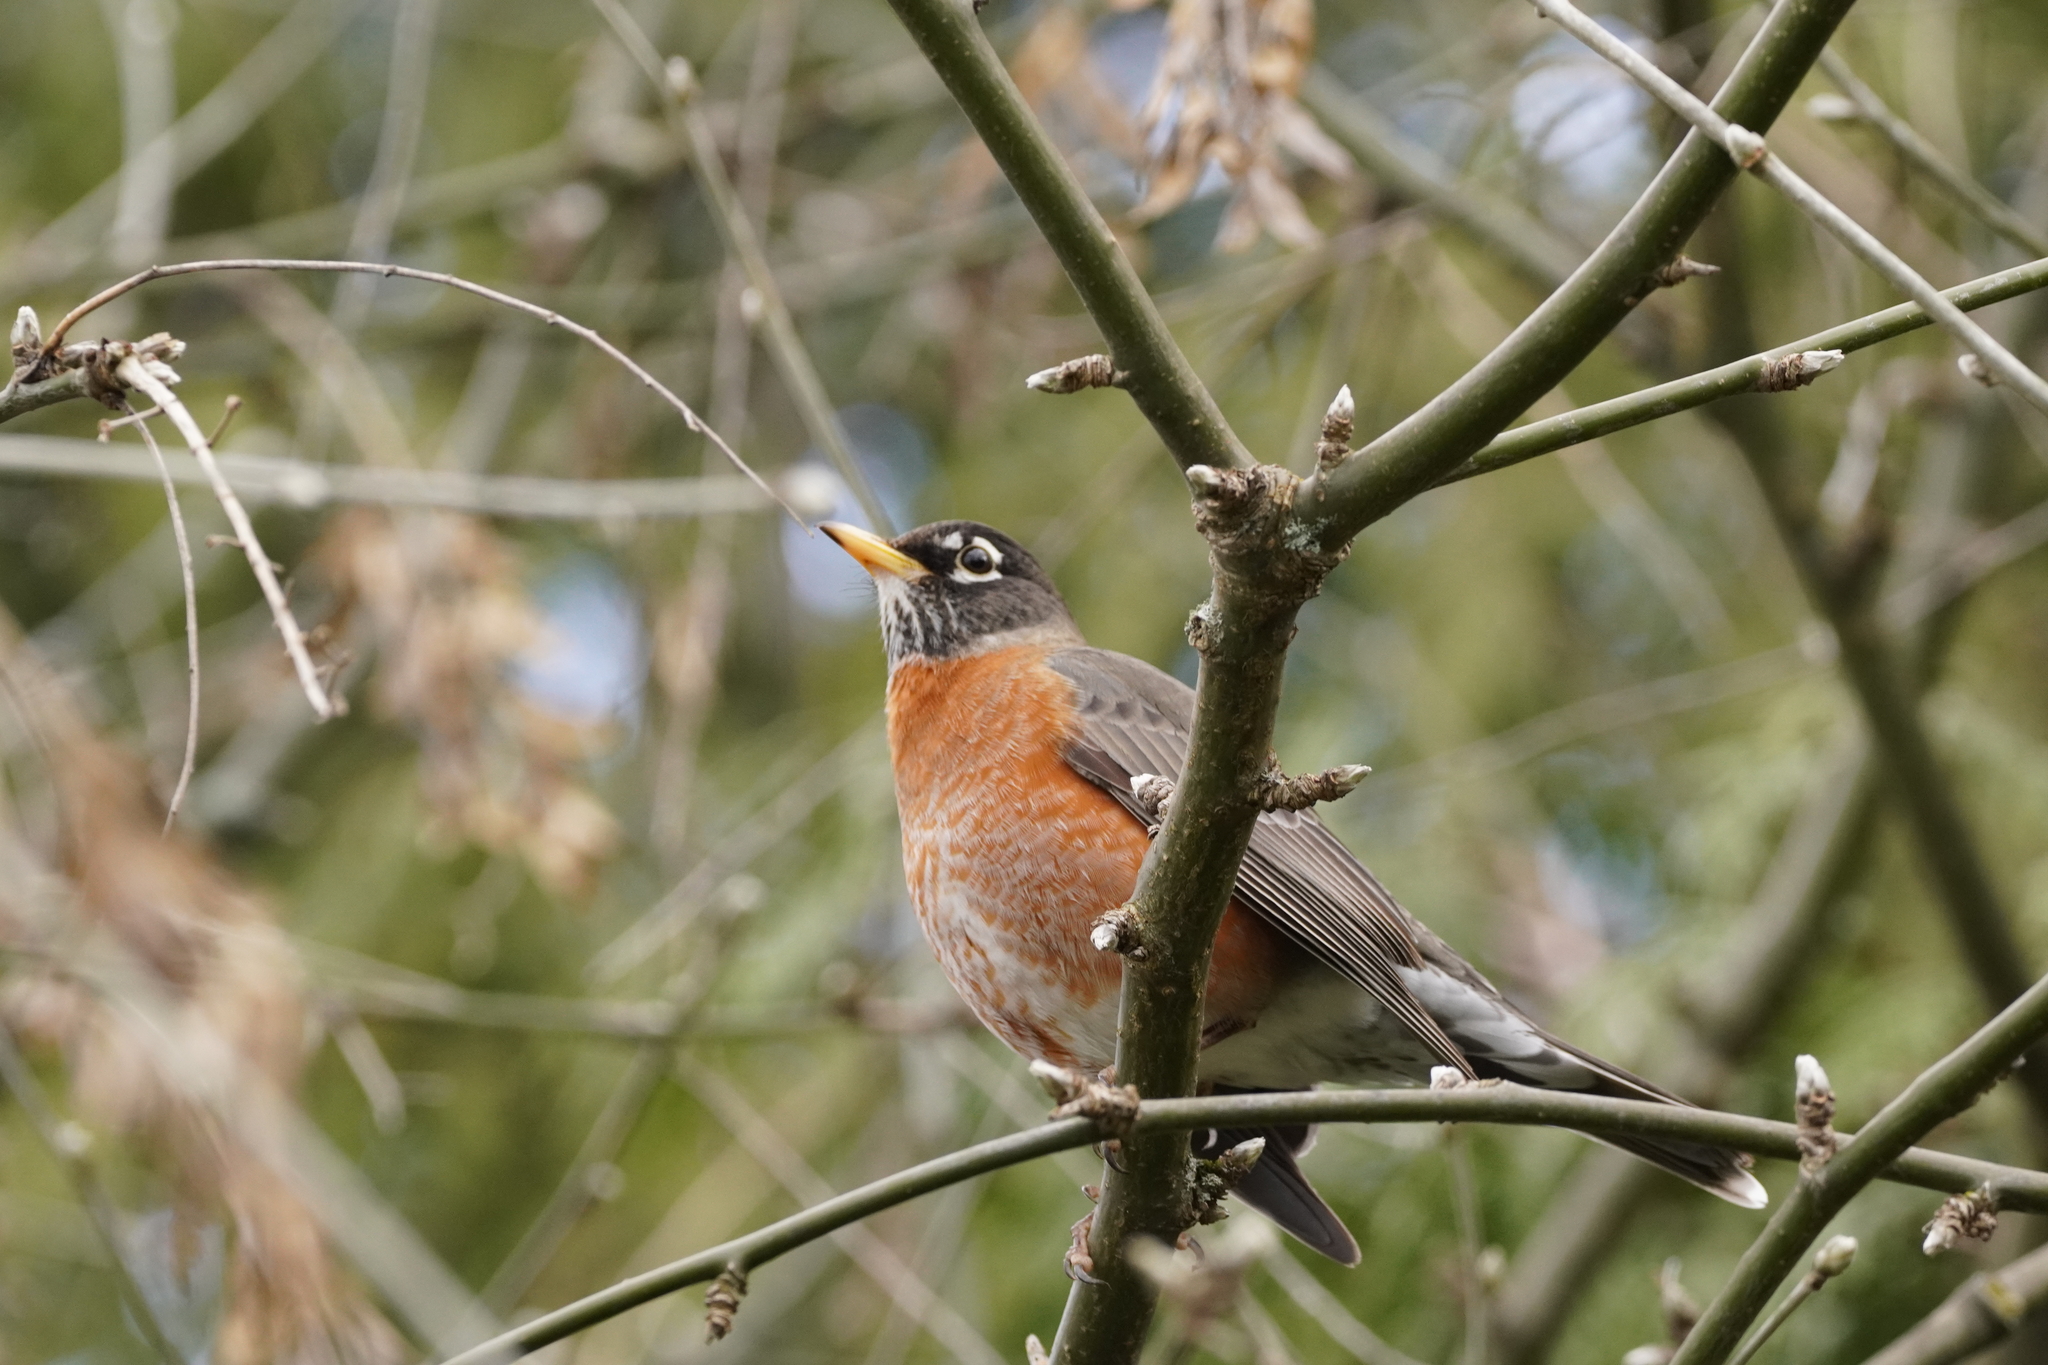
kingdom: Animalia
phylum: Chordata
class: Aves
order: Passeriformes
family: Turdidae
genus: Turdus
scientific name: Turdus migratorius
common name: American robin
